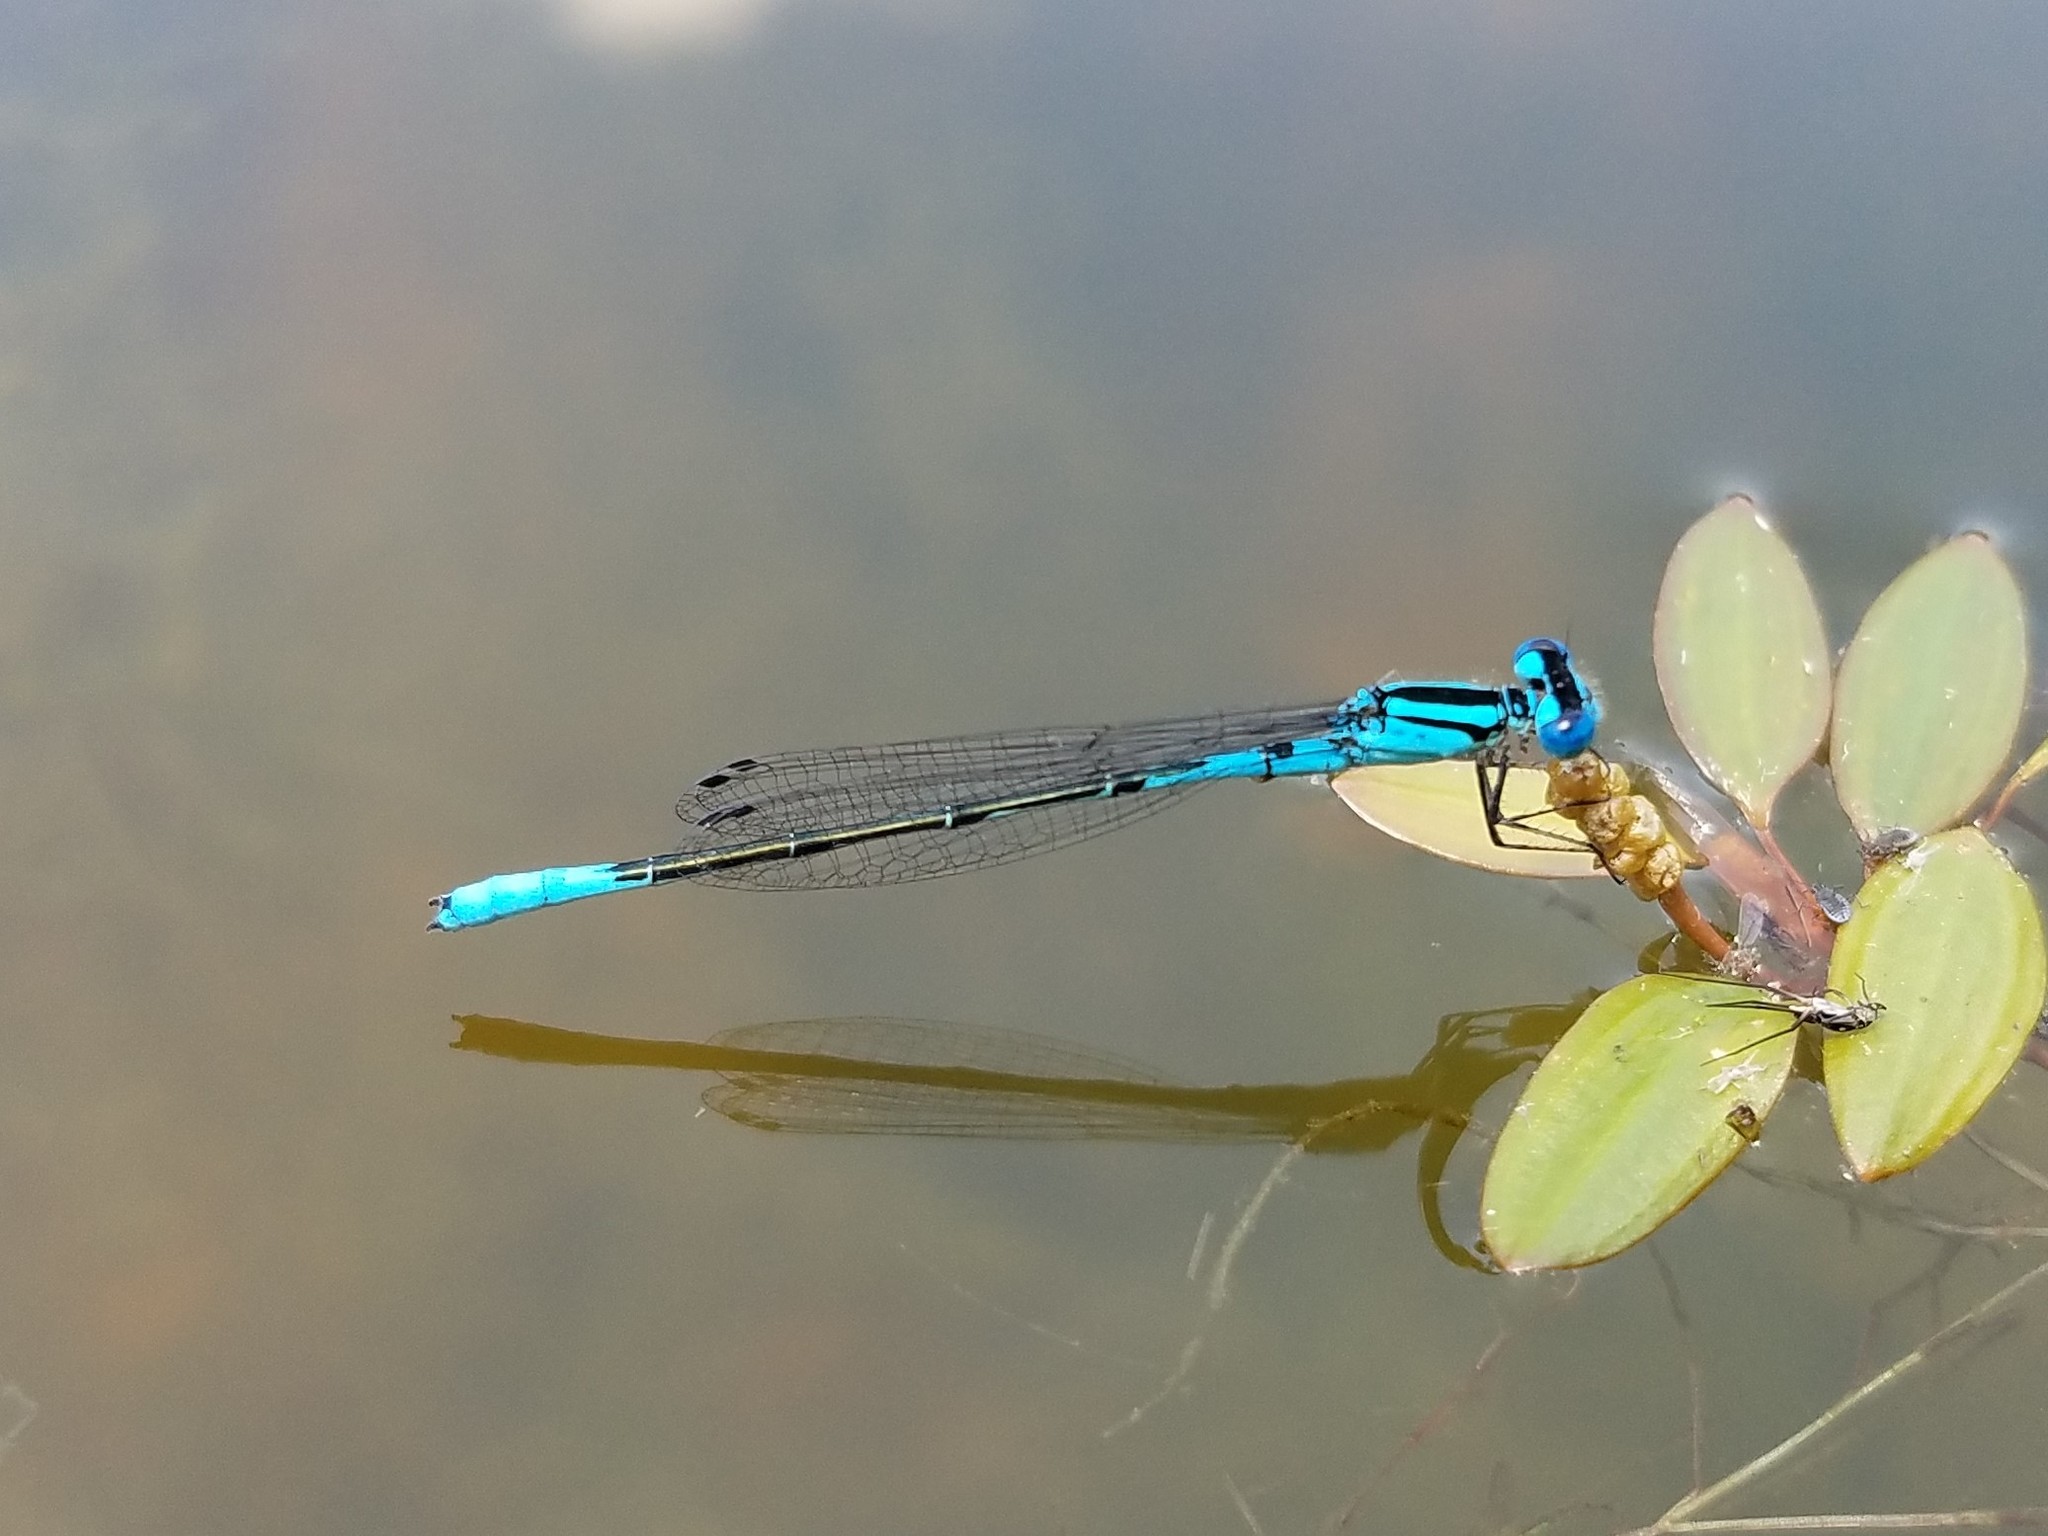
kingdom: Animalia
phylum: Arthropoda
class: Insecta
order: Odonata
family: Coenagrionidae
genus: Enallagma
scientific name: Enallagma aspersum
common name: Azure bluet
